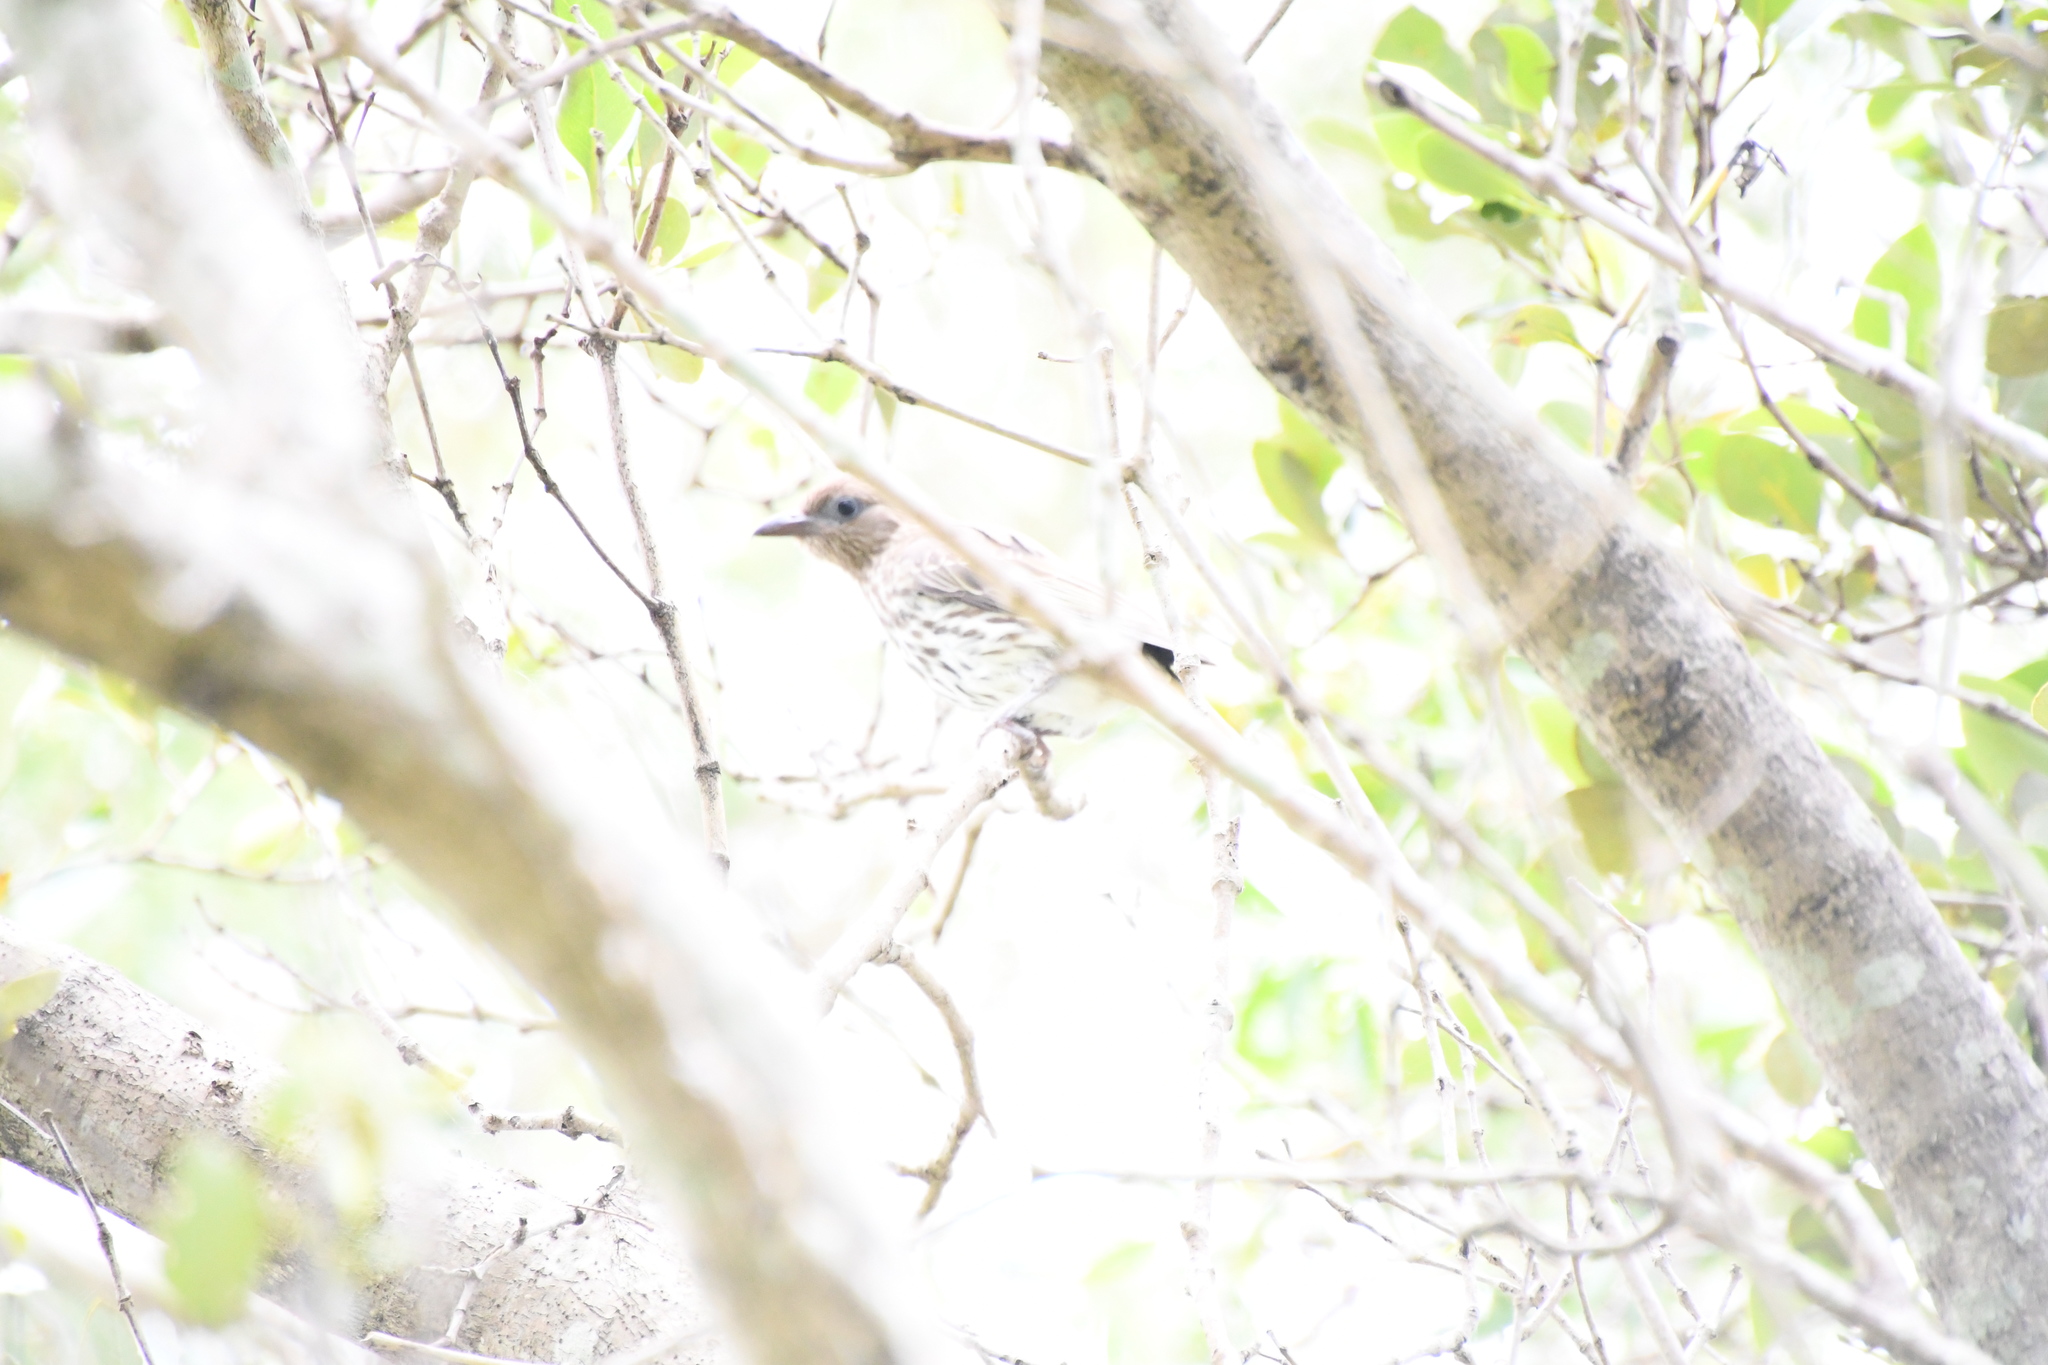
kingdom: Animalia
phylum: Chordata
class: Aves
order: Passeriformes
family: Oriolidae
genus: Sphecotheres
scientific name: Sphecotheres vieilloti
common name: Australasian figbird
